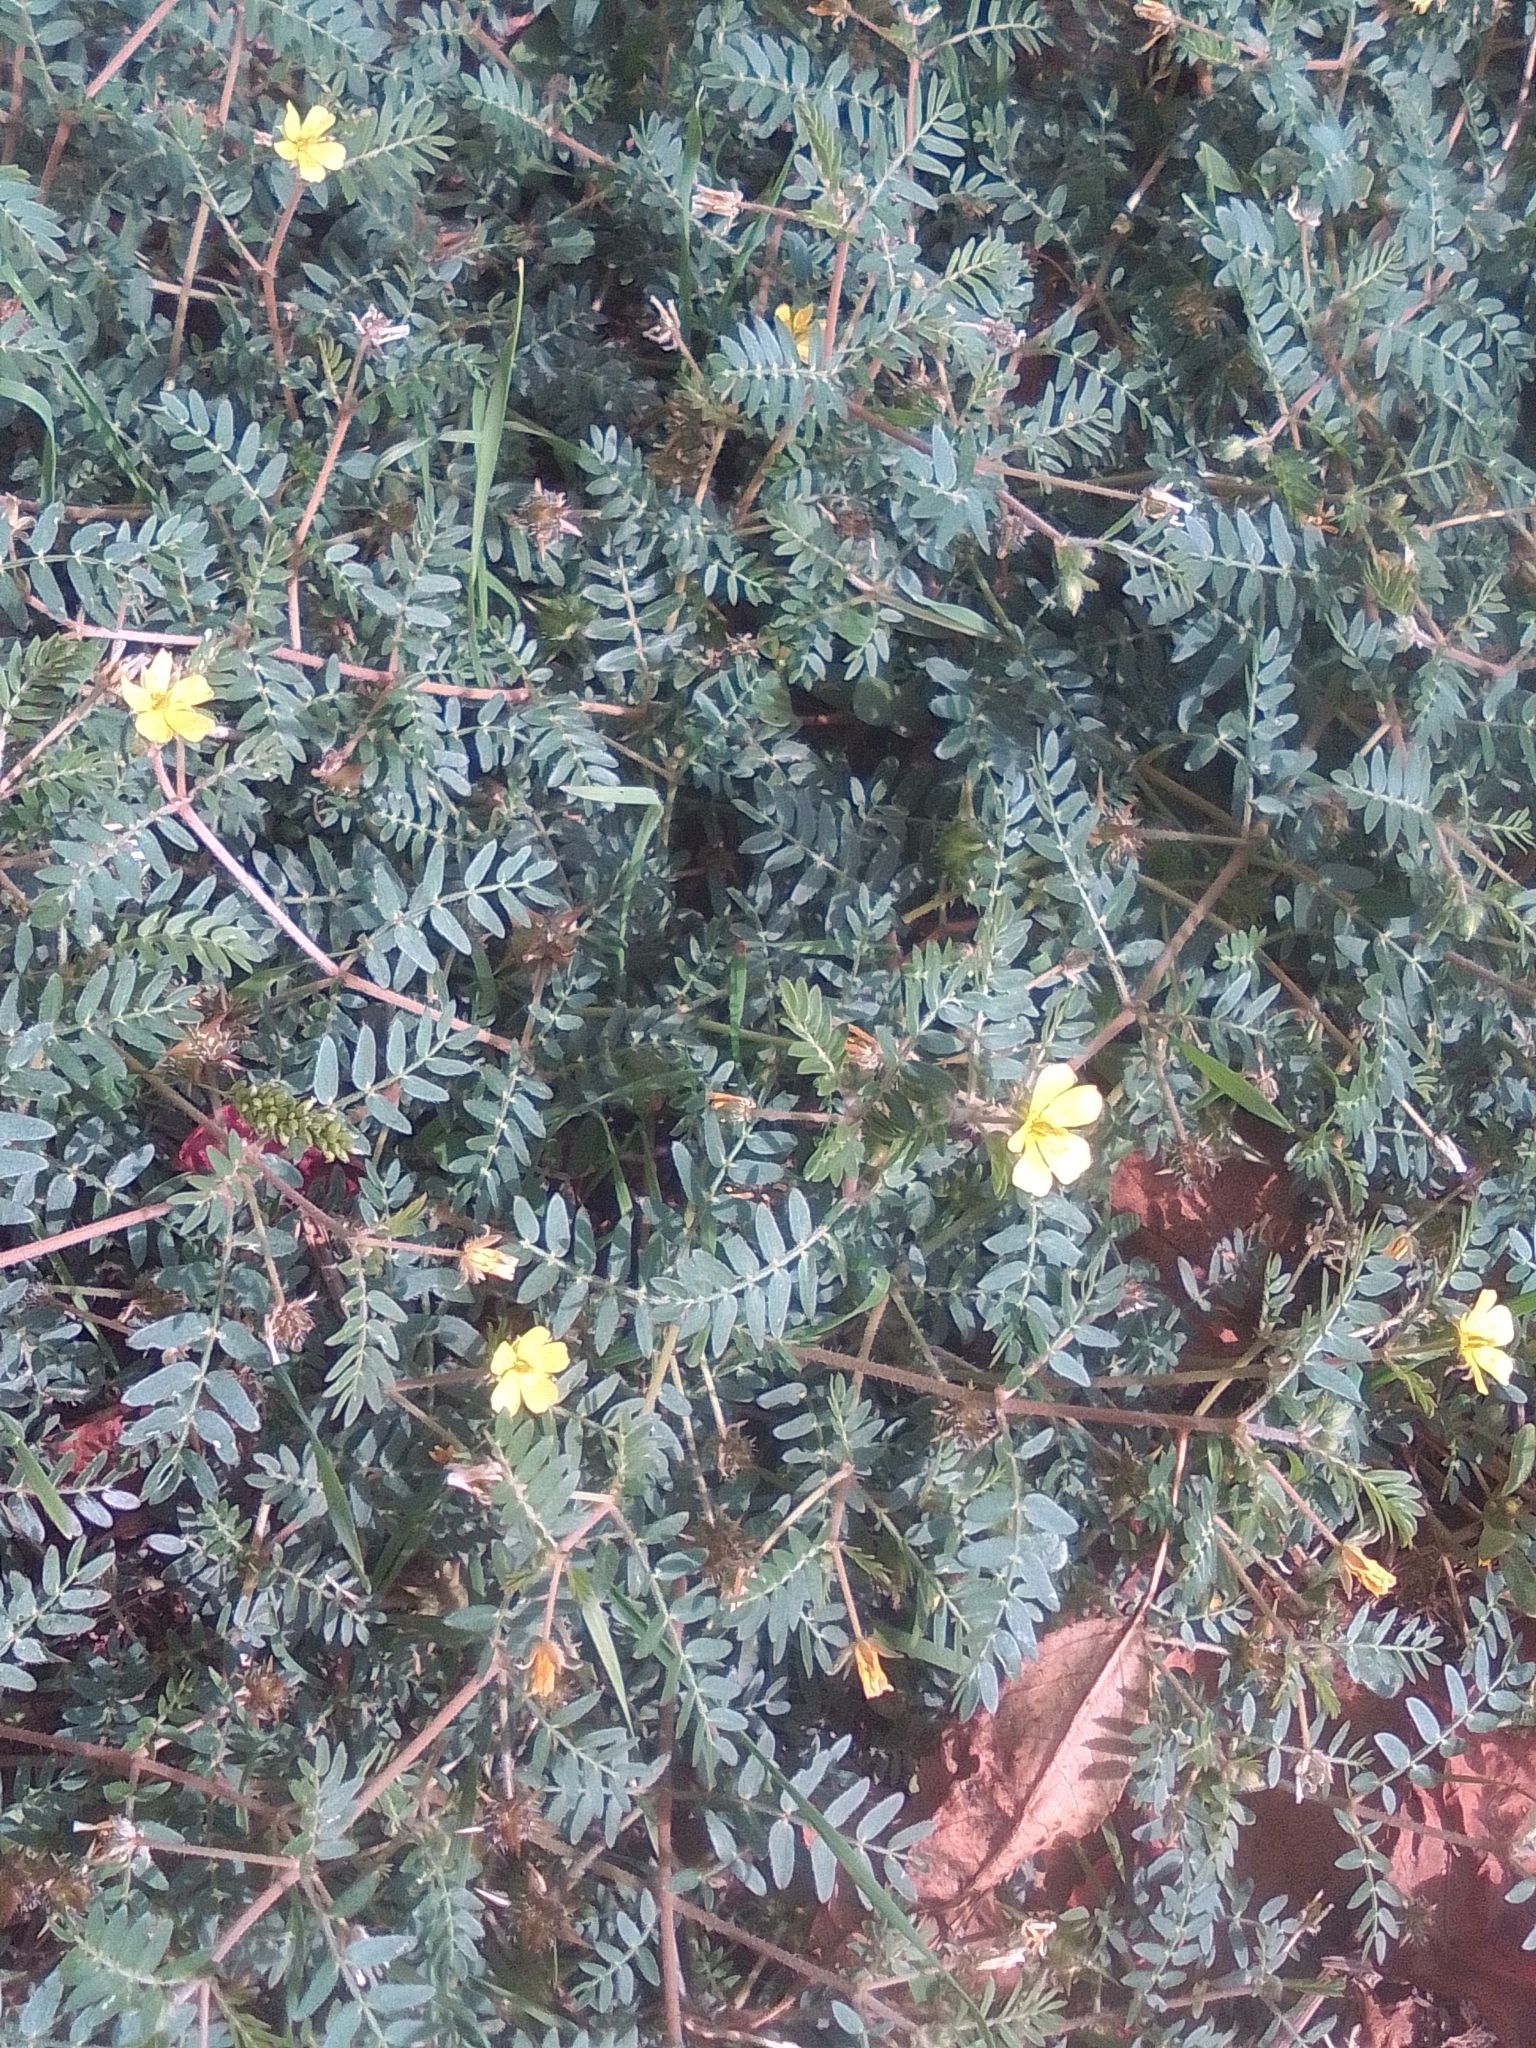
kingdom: Plantae
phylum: Tracheophyta
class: Magnoliopsida
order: Zygophyllales
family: Zygophyllaceae
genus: Tribulus
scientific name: Tribulus terrestris
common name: Puncturevine
